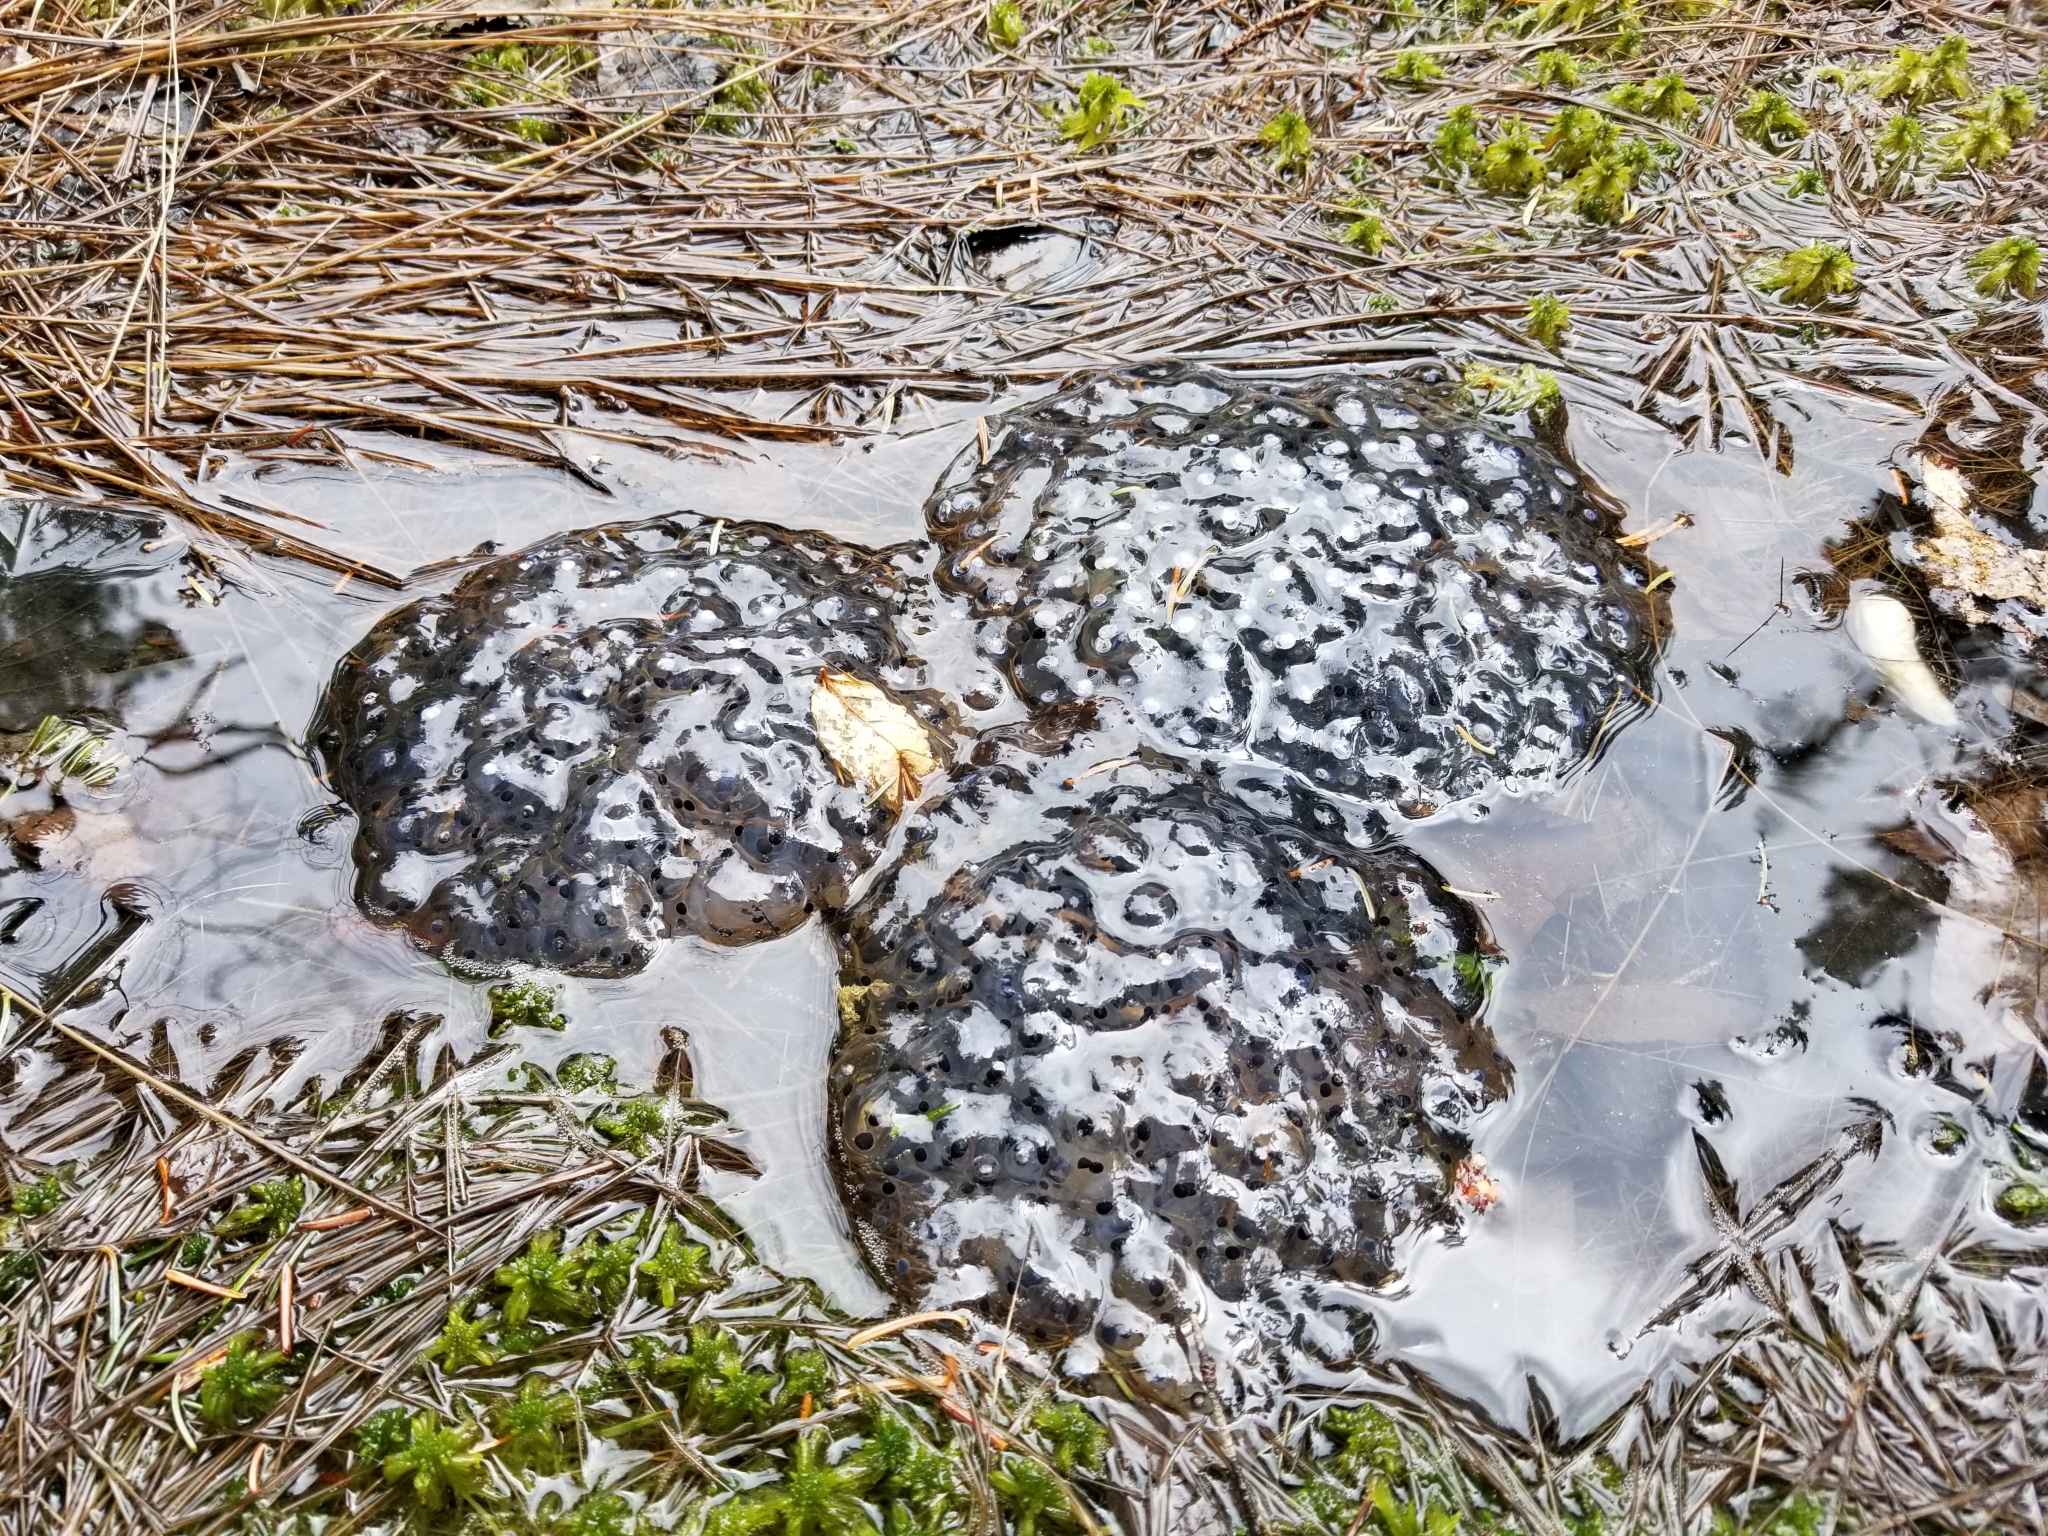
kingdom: Animalia
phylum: Chordata
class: Amphibia
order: Anura
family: Ranidae
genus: Lithobates
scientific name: Lithobates sylvaticus
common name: Wood frog
